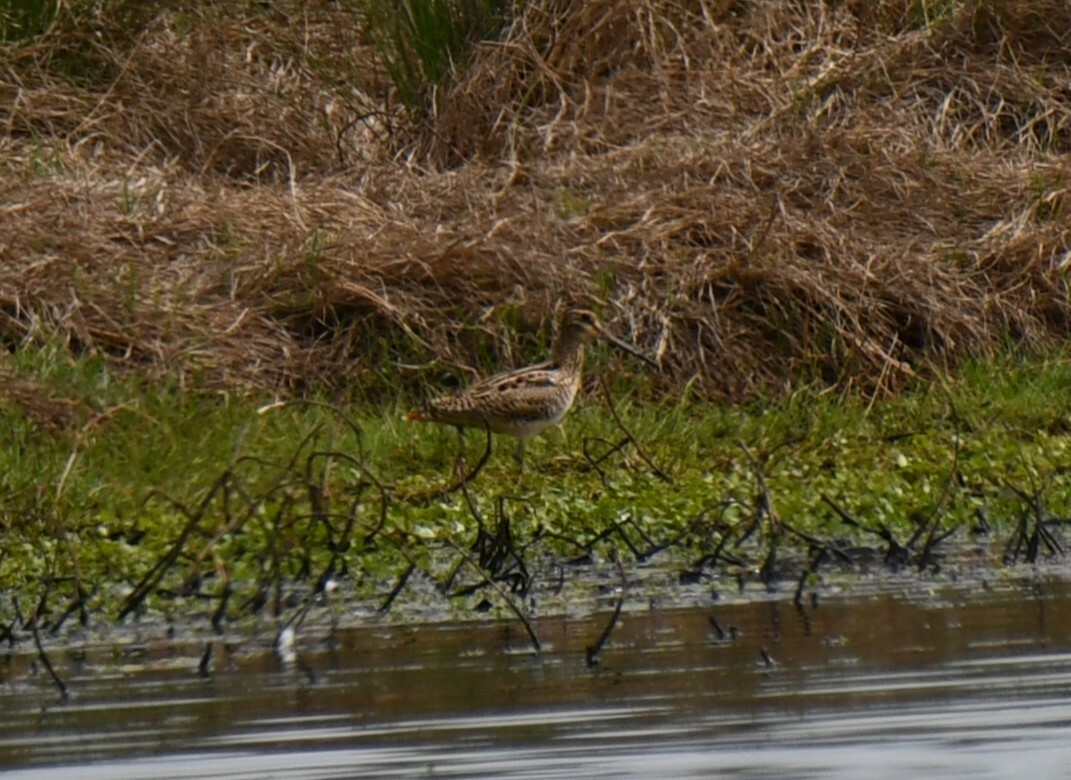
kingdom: Animalia
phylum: Chordata
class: Aves
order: Charadriiformes
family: Scolopacidae
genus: Gallinago
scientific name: Gallinago hardwickii
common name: Latham's snipe
